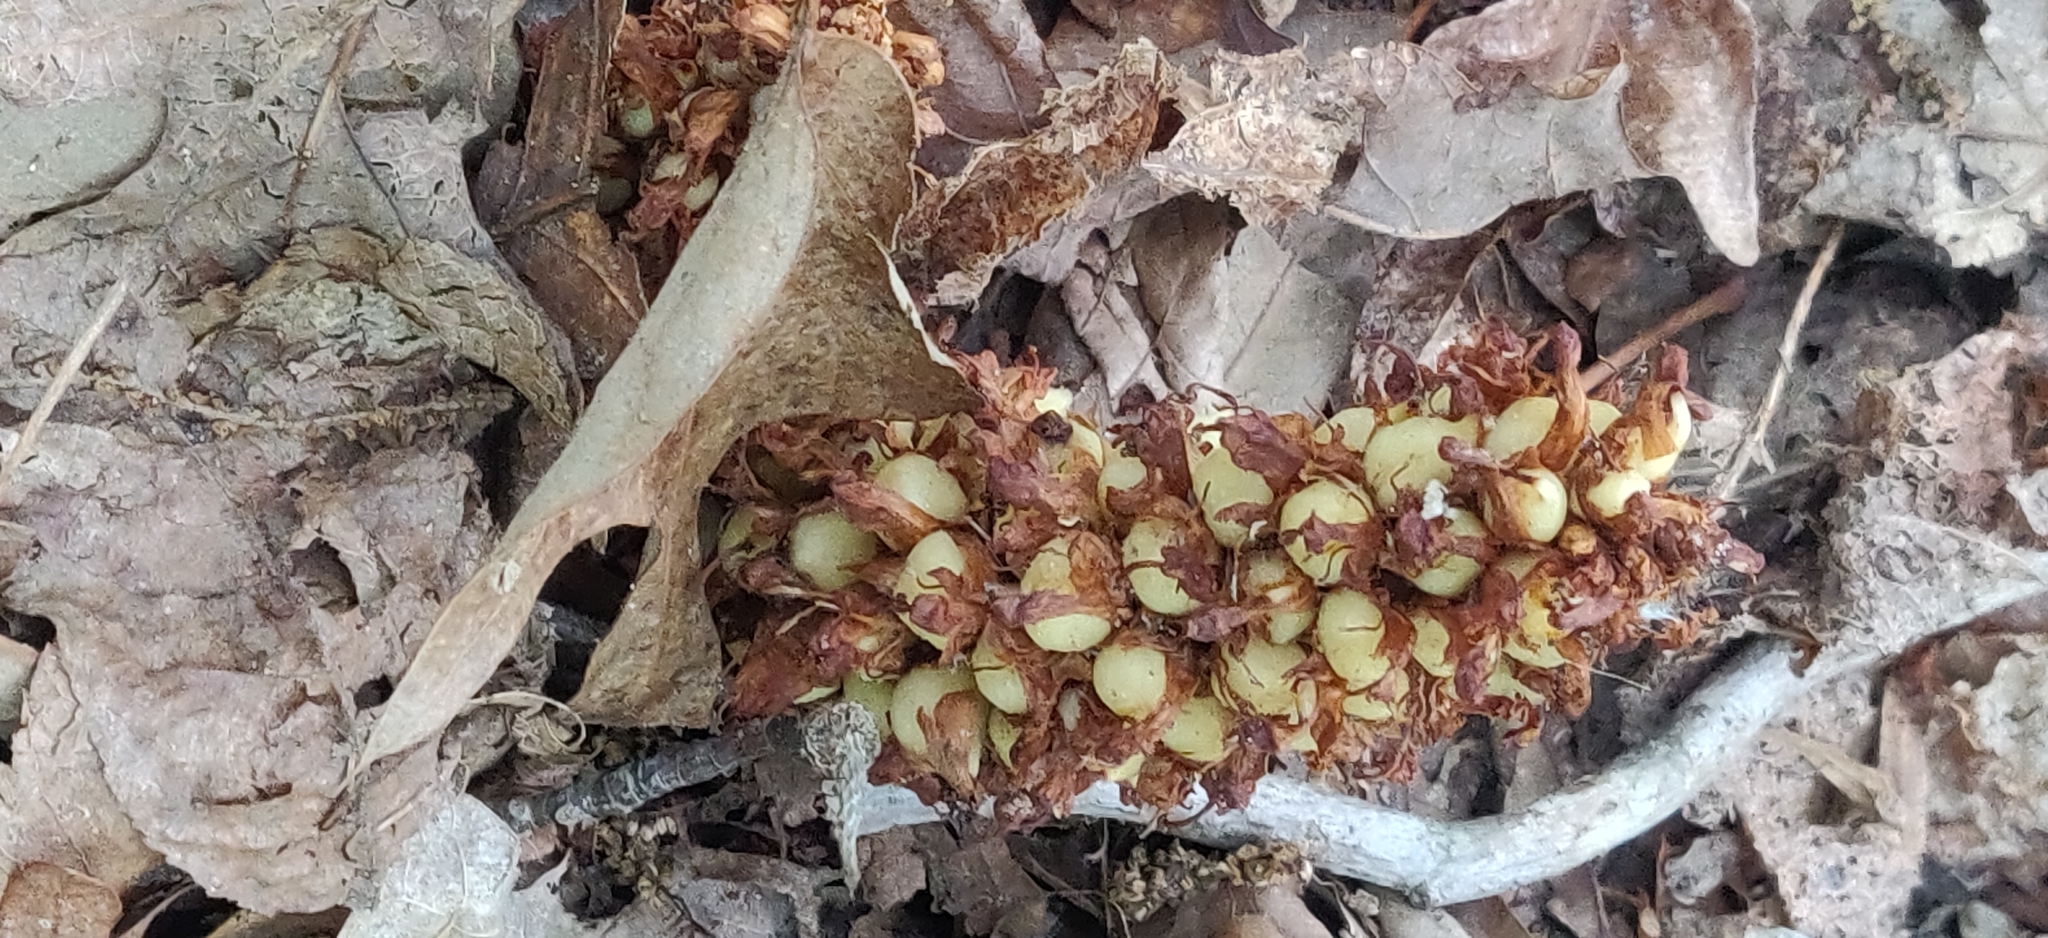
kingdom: Plantae
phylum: Tracheophyta
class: Magnoliopsida
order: Lamiales
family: Orobanchaceae
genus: Conopholis
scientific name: Conopholis americana
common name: American cancer-root
